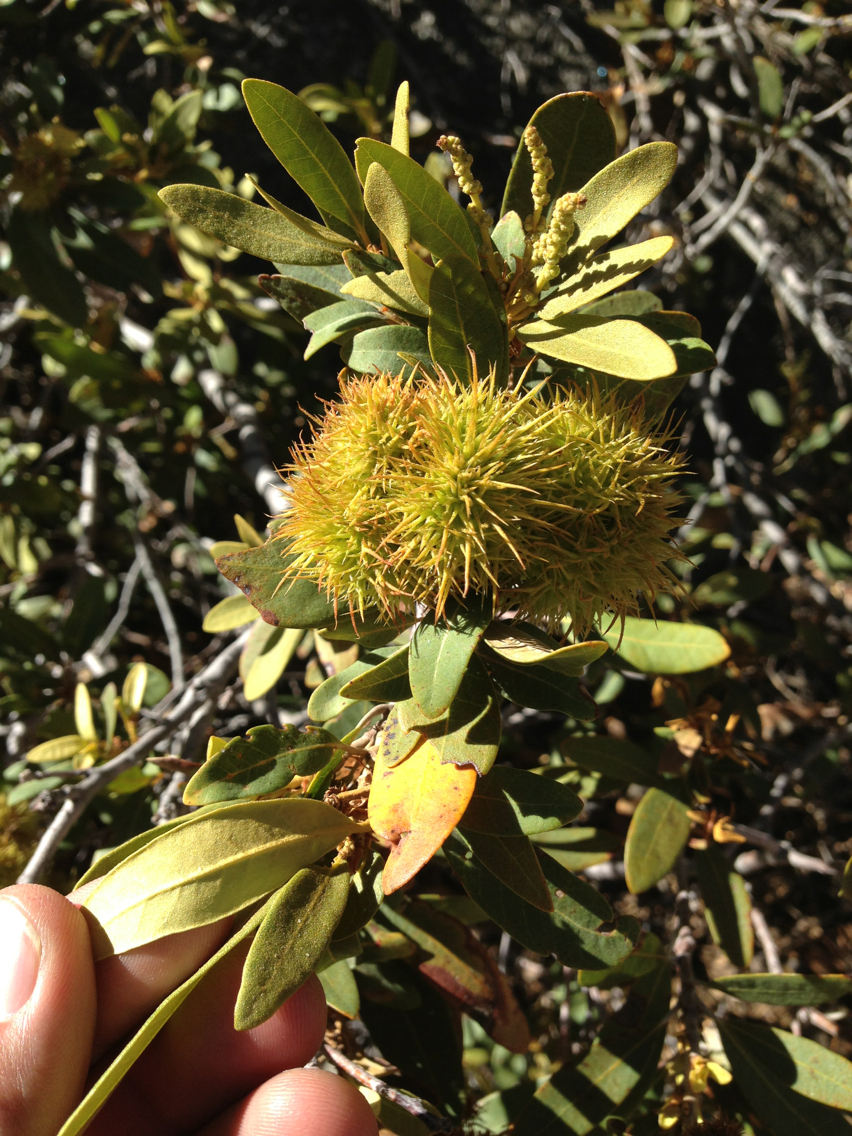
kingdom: Plantae
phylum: Tracheophyta
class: Magnoliopsida
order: Fagales
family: Fagaceae
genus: Chrysolepis
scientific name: Chrysolepis sempervirens
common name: Bush chinquapin
